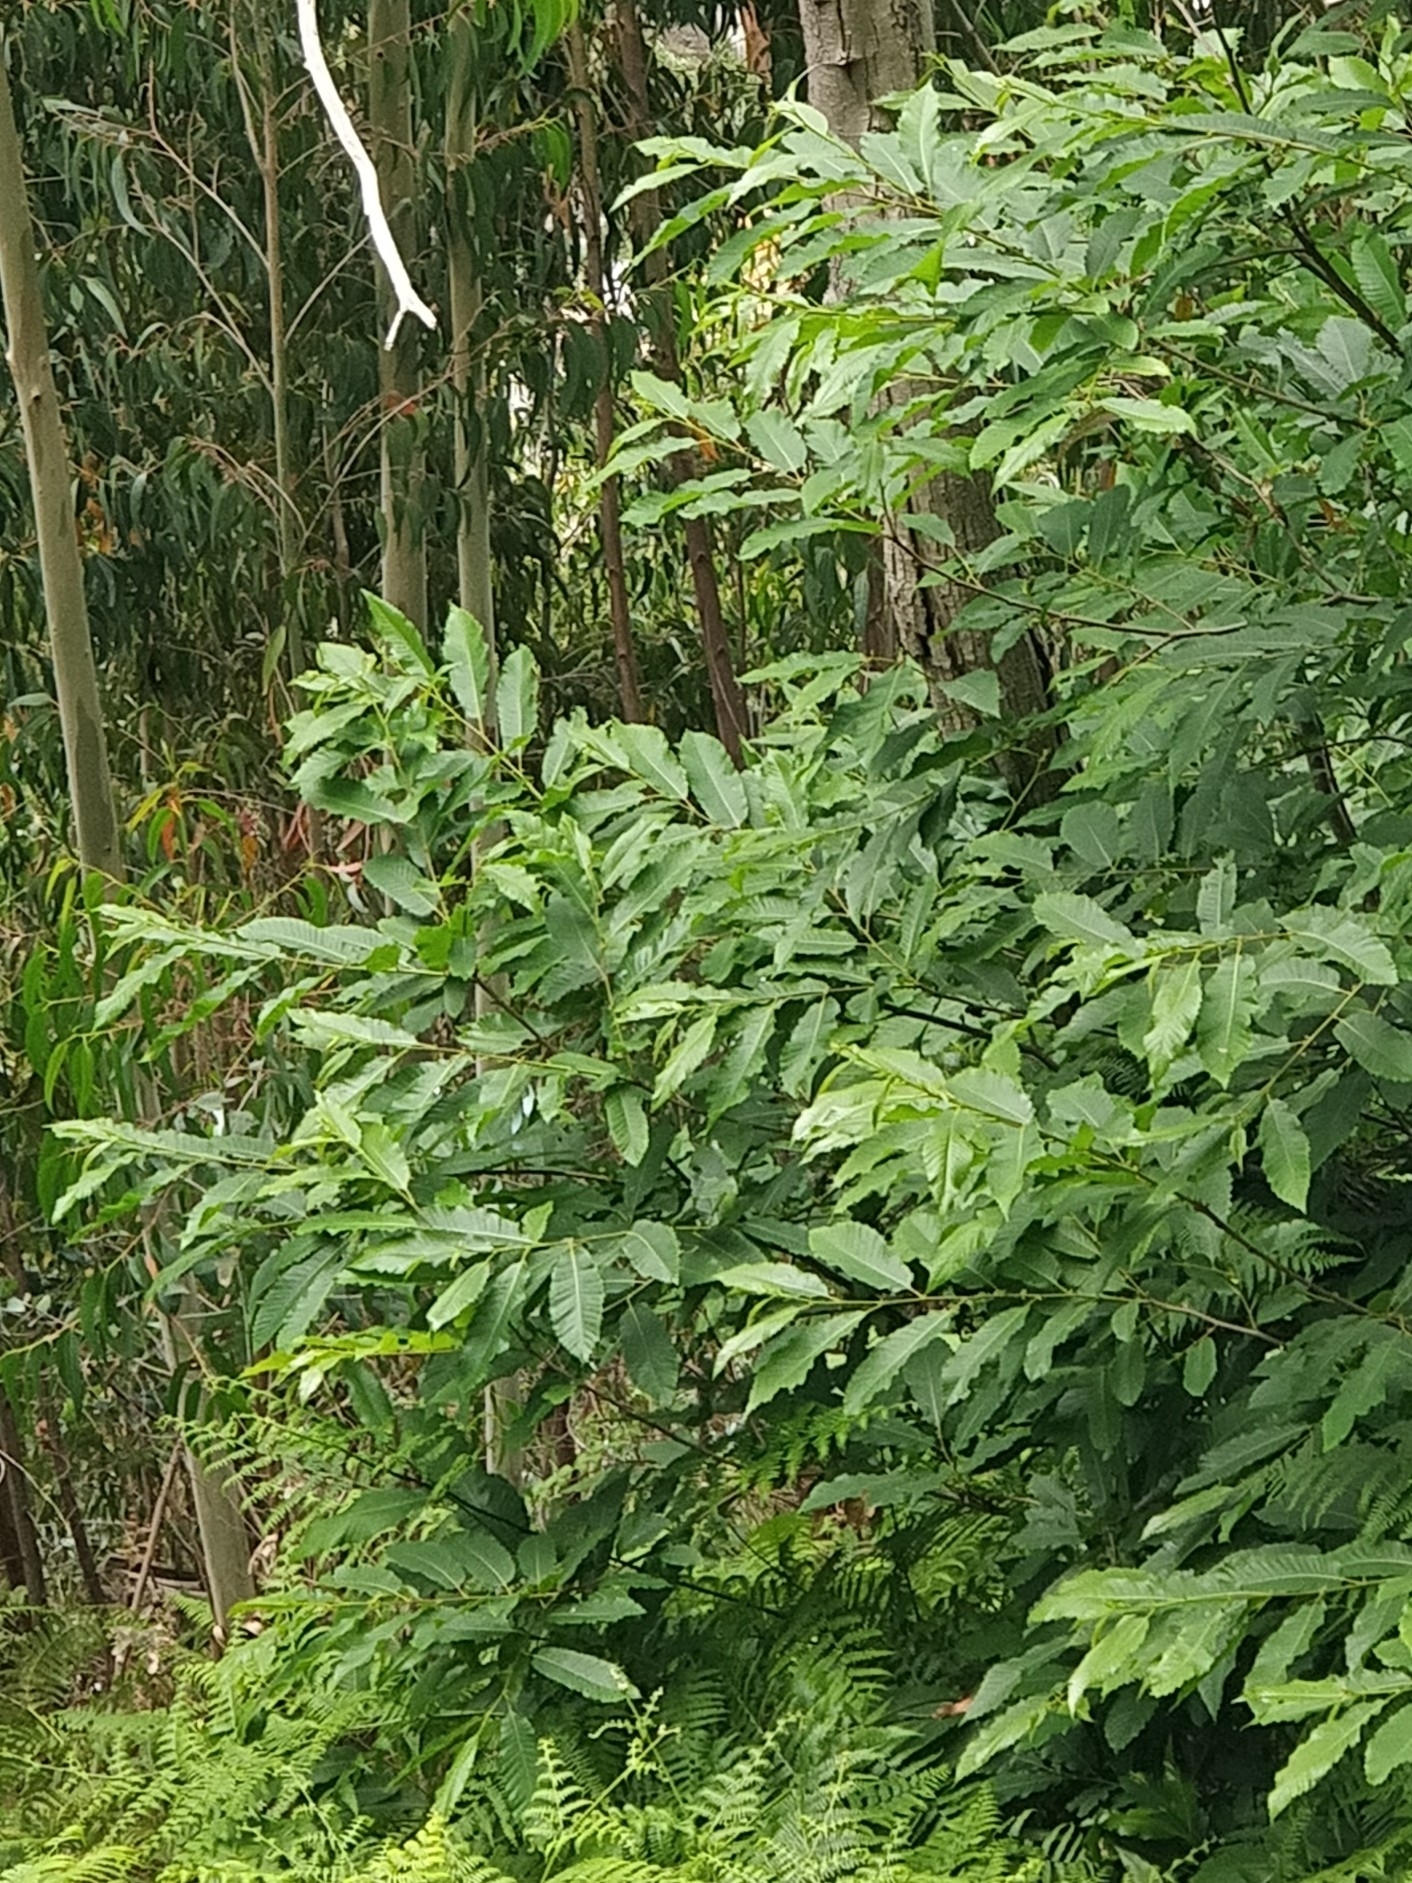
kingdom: Plantae
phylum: Tracheophyta
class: Magnoliopsida
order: Fagales
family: Fagaceae
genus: Castanea
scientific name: Castanea sativa
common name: Sweet chestnut
